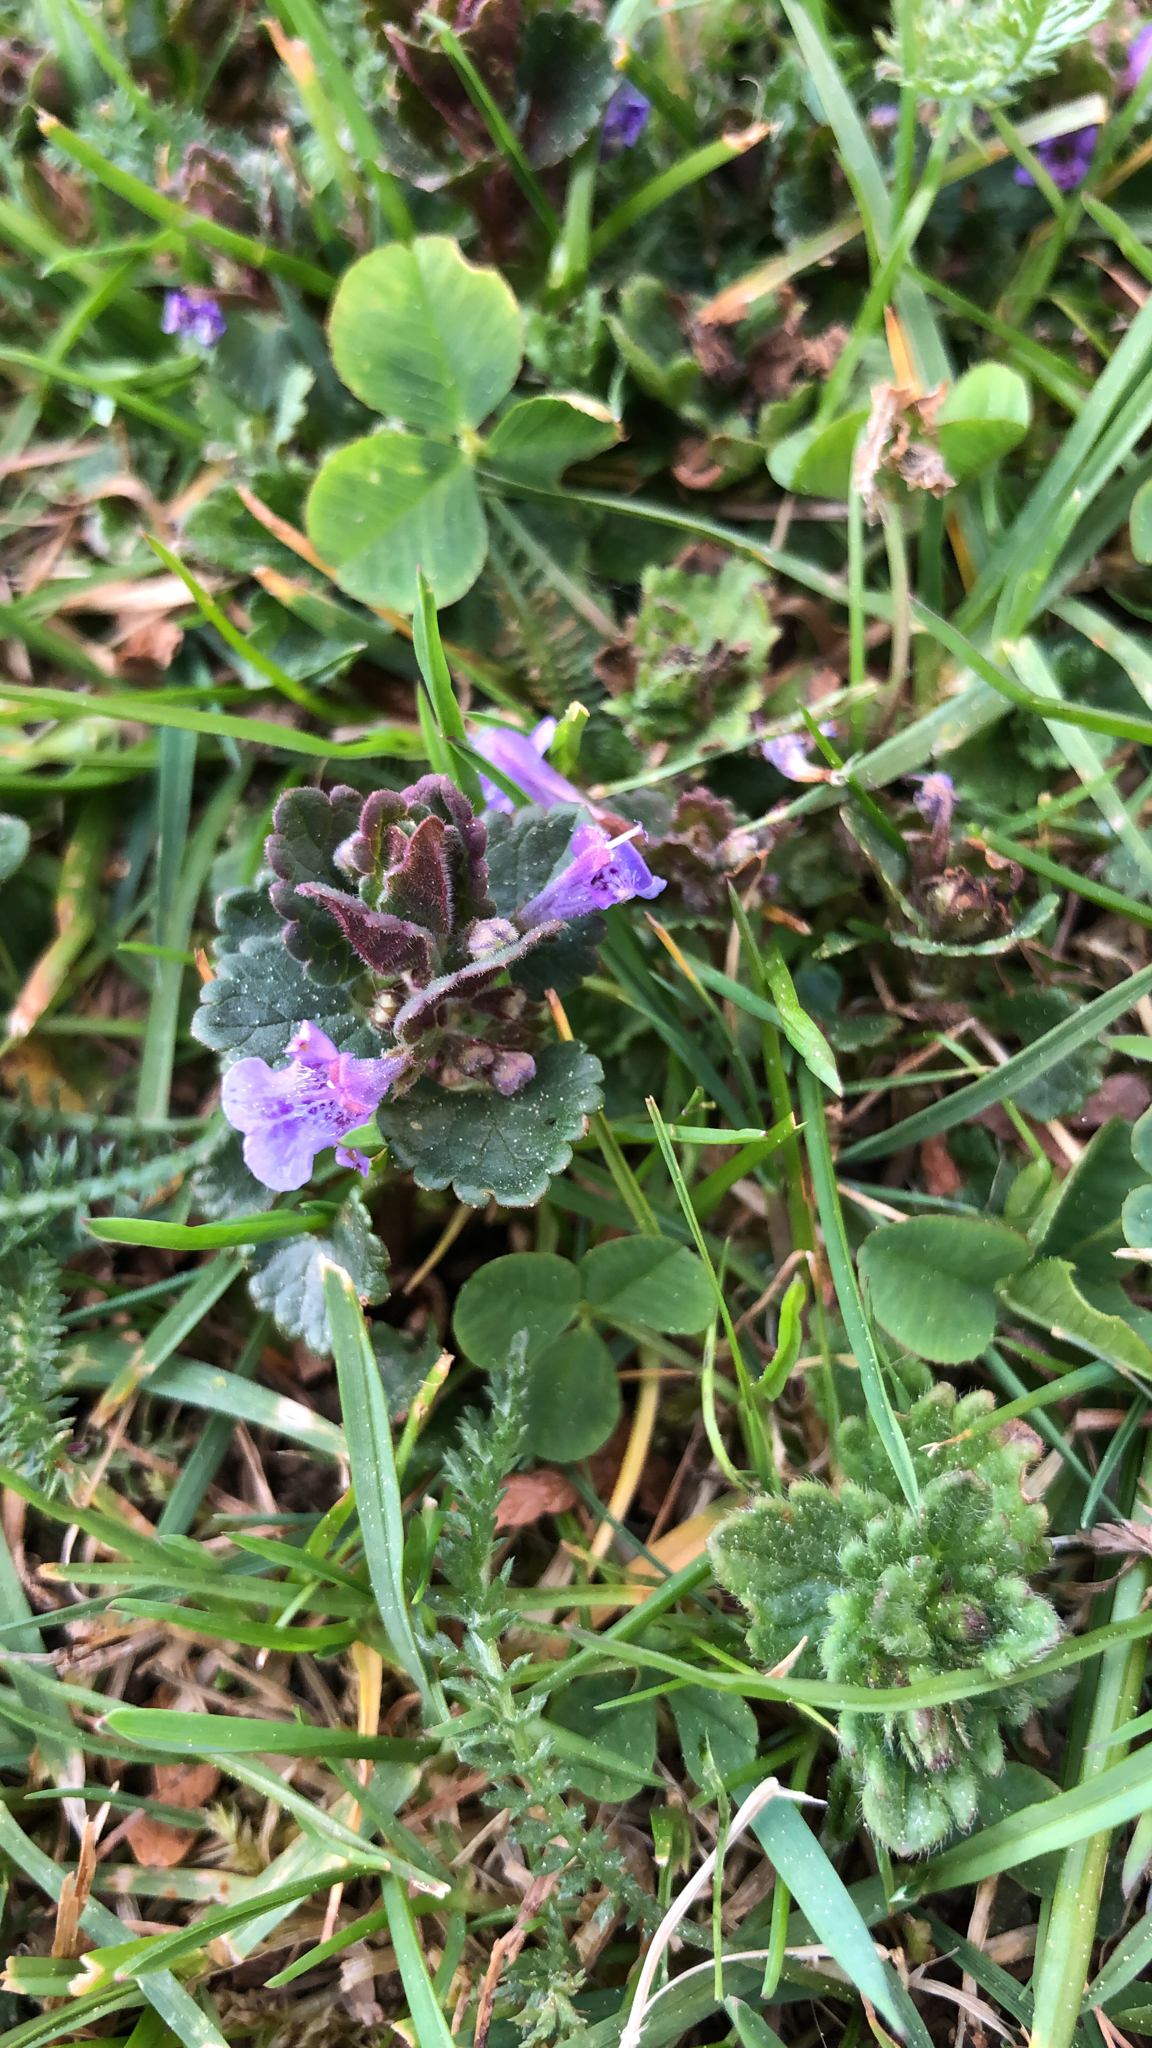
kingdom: Plantae
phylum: Tracheophyta
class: Magnoliopsida
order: Lamiales
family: Lamiaceae
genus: Glechoma
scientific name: Glechoma hederacea
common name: Ground ivy
